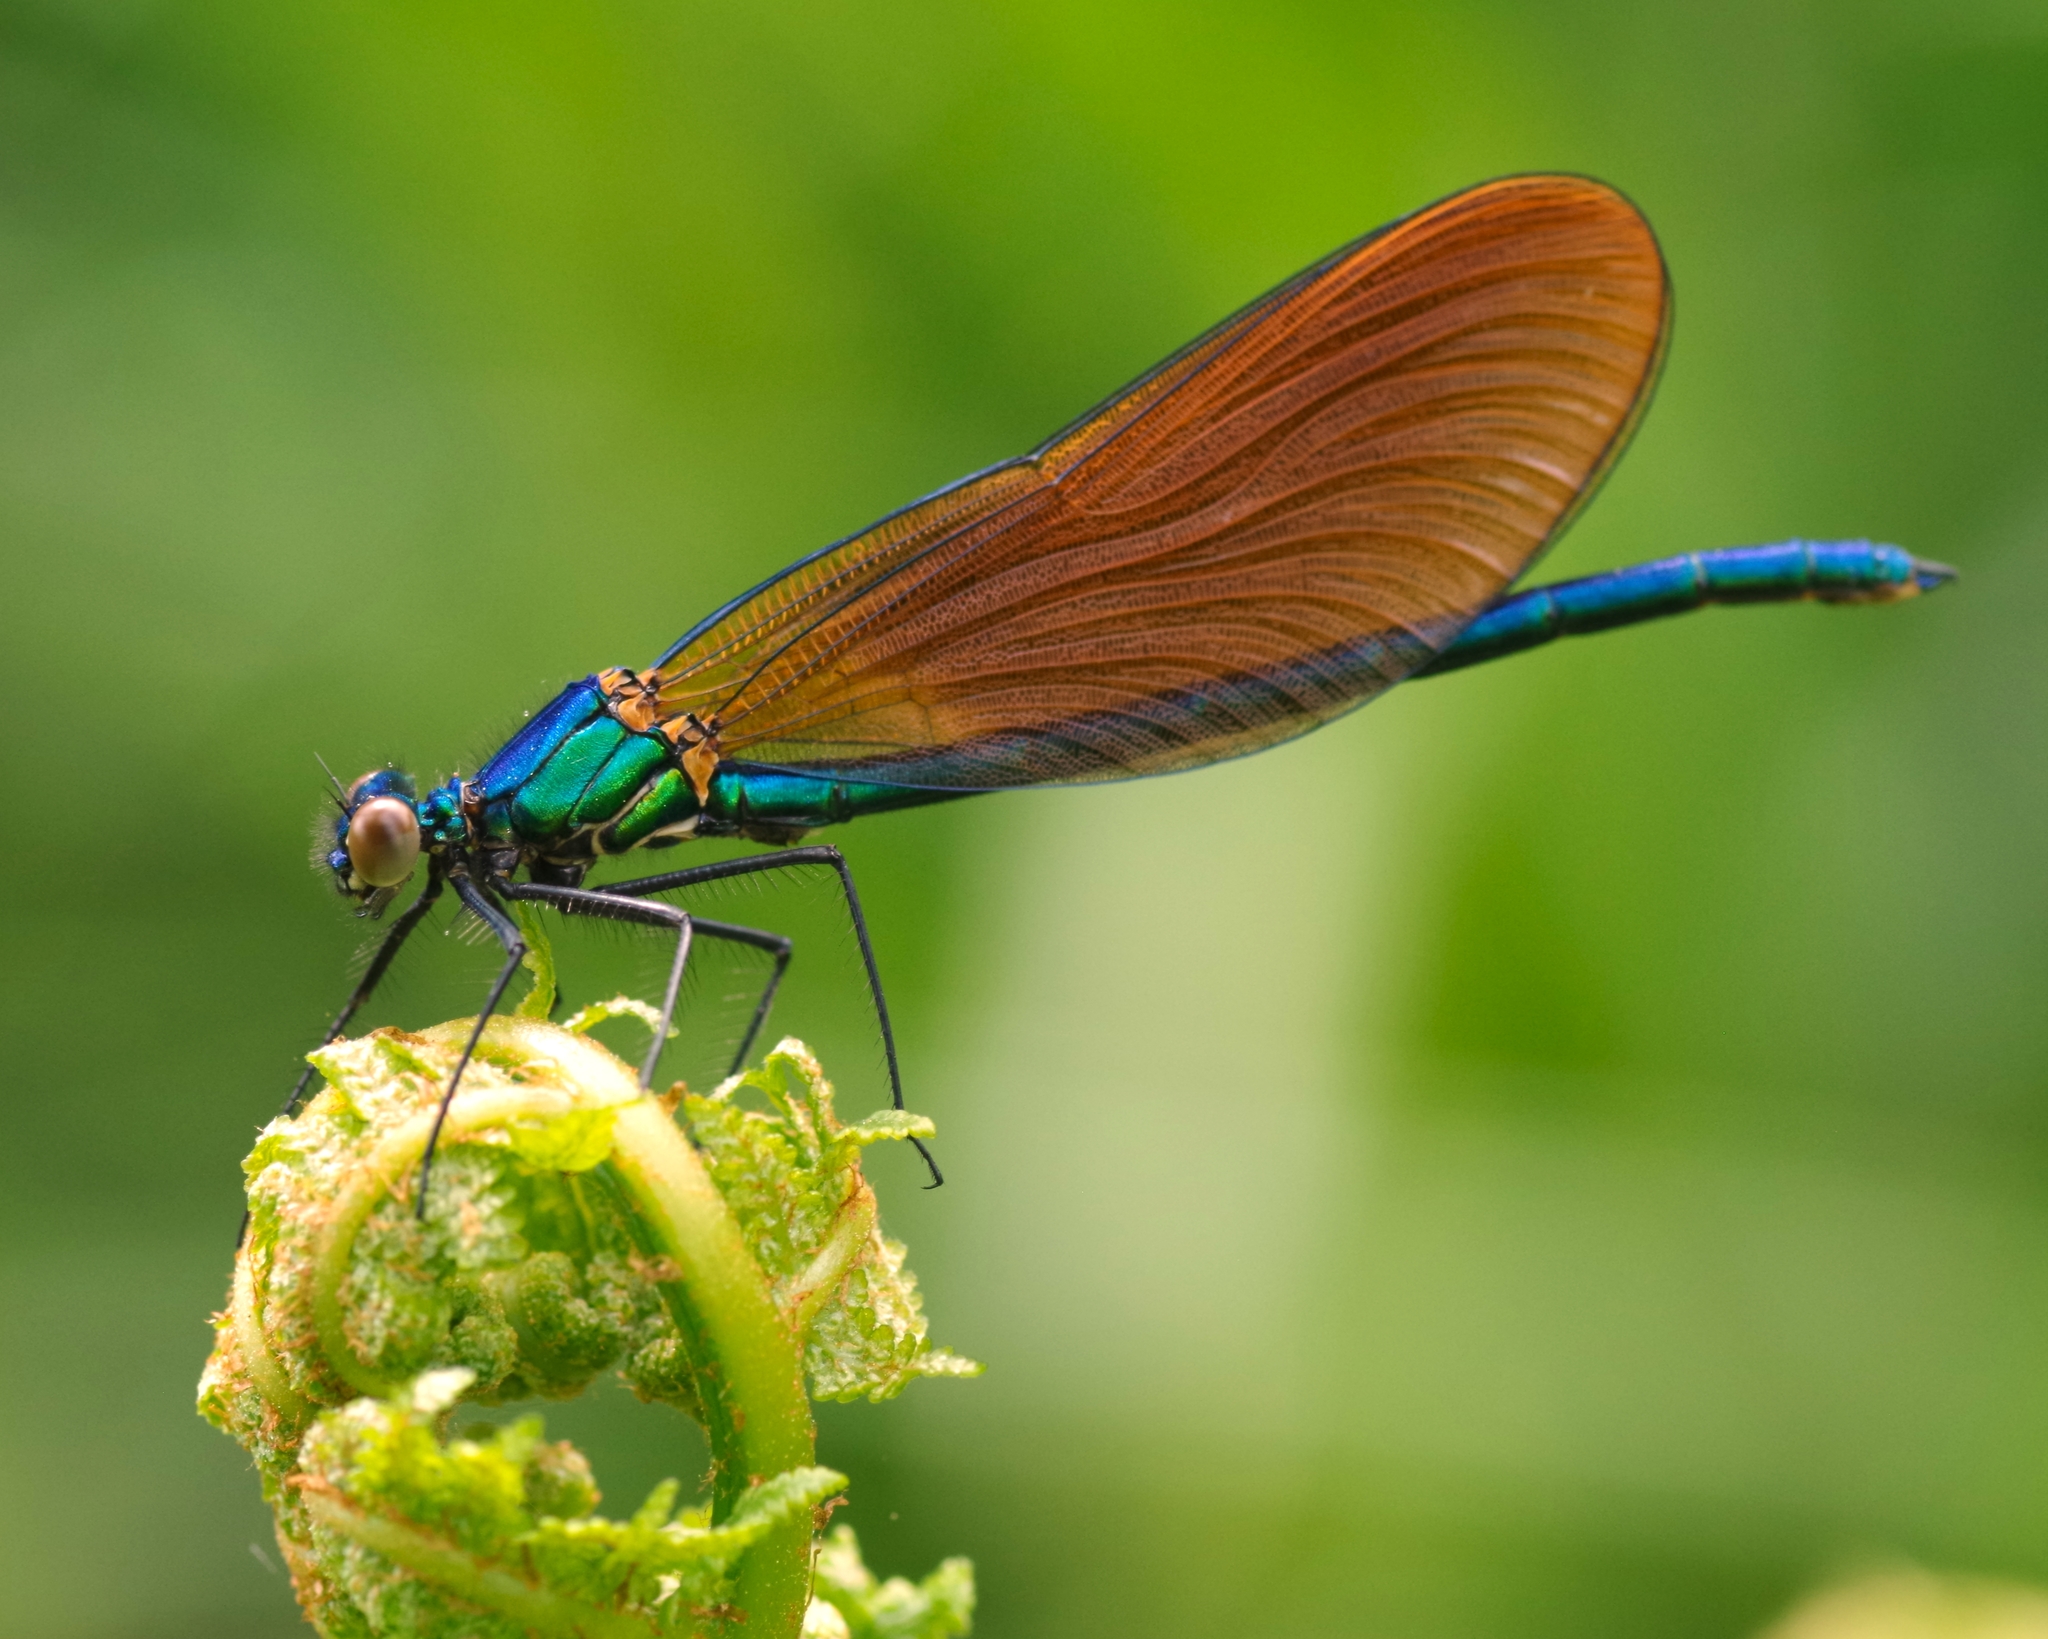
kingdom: Animalia
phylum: Arthropoda
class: Insecta
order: Odonata
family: Calopterygidae
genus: Calopteryx
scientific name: Calopteryx virgo
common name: Beautiful demoiselle
